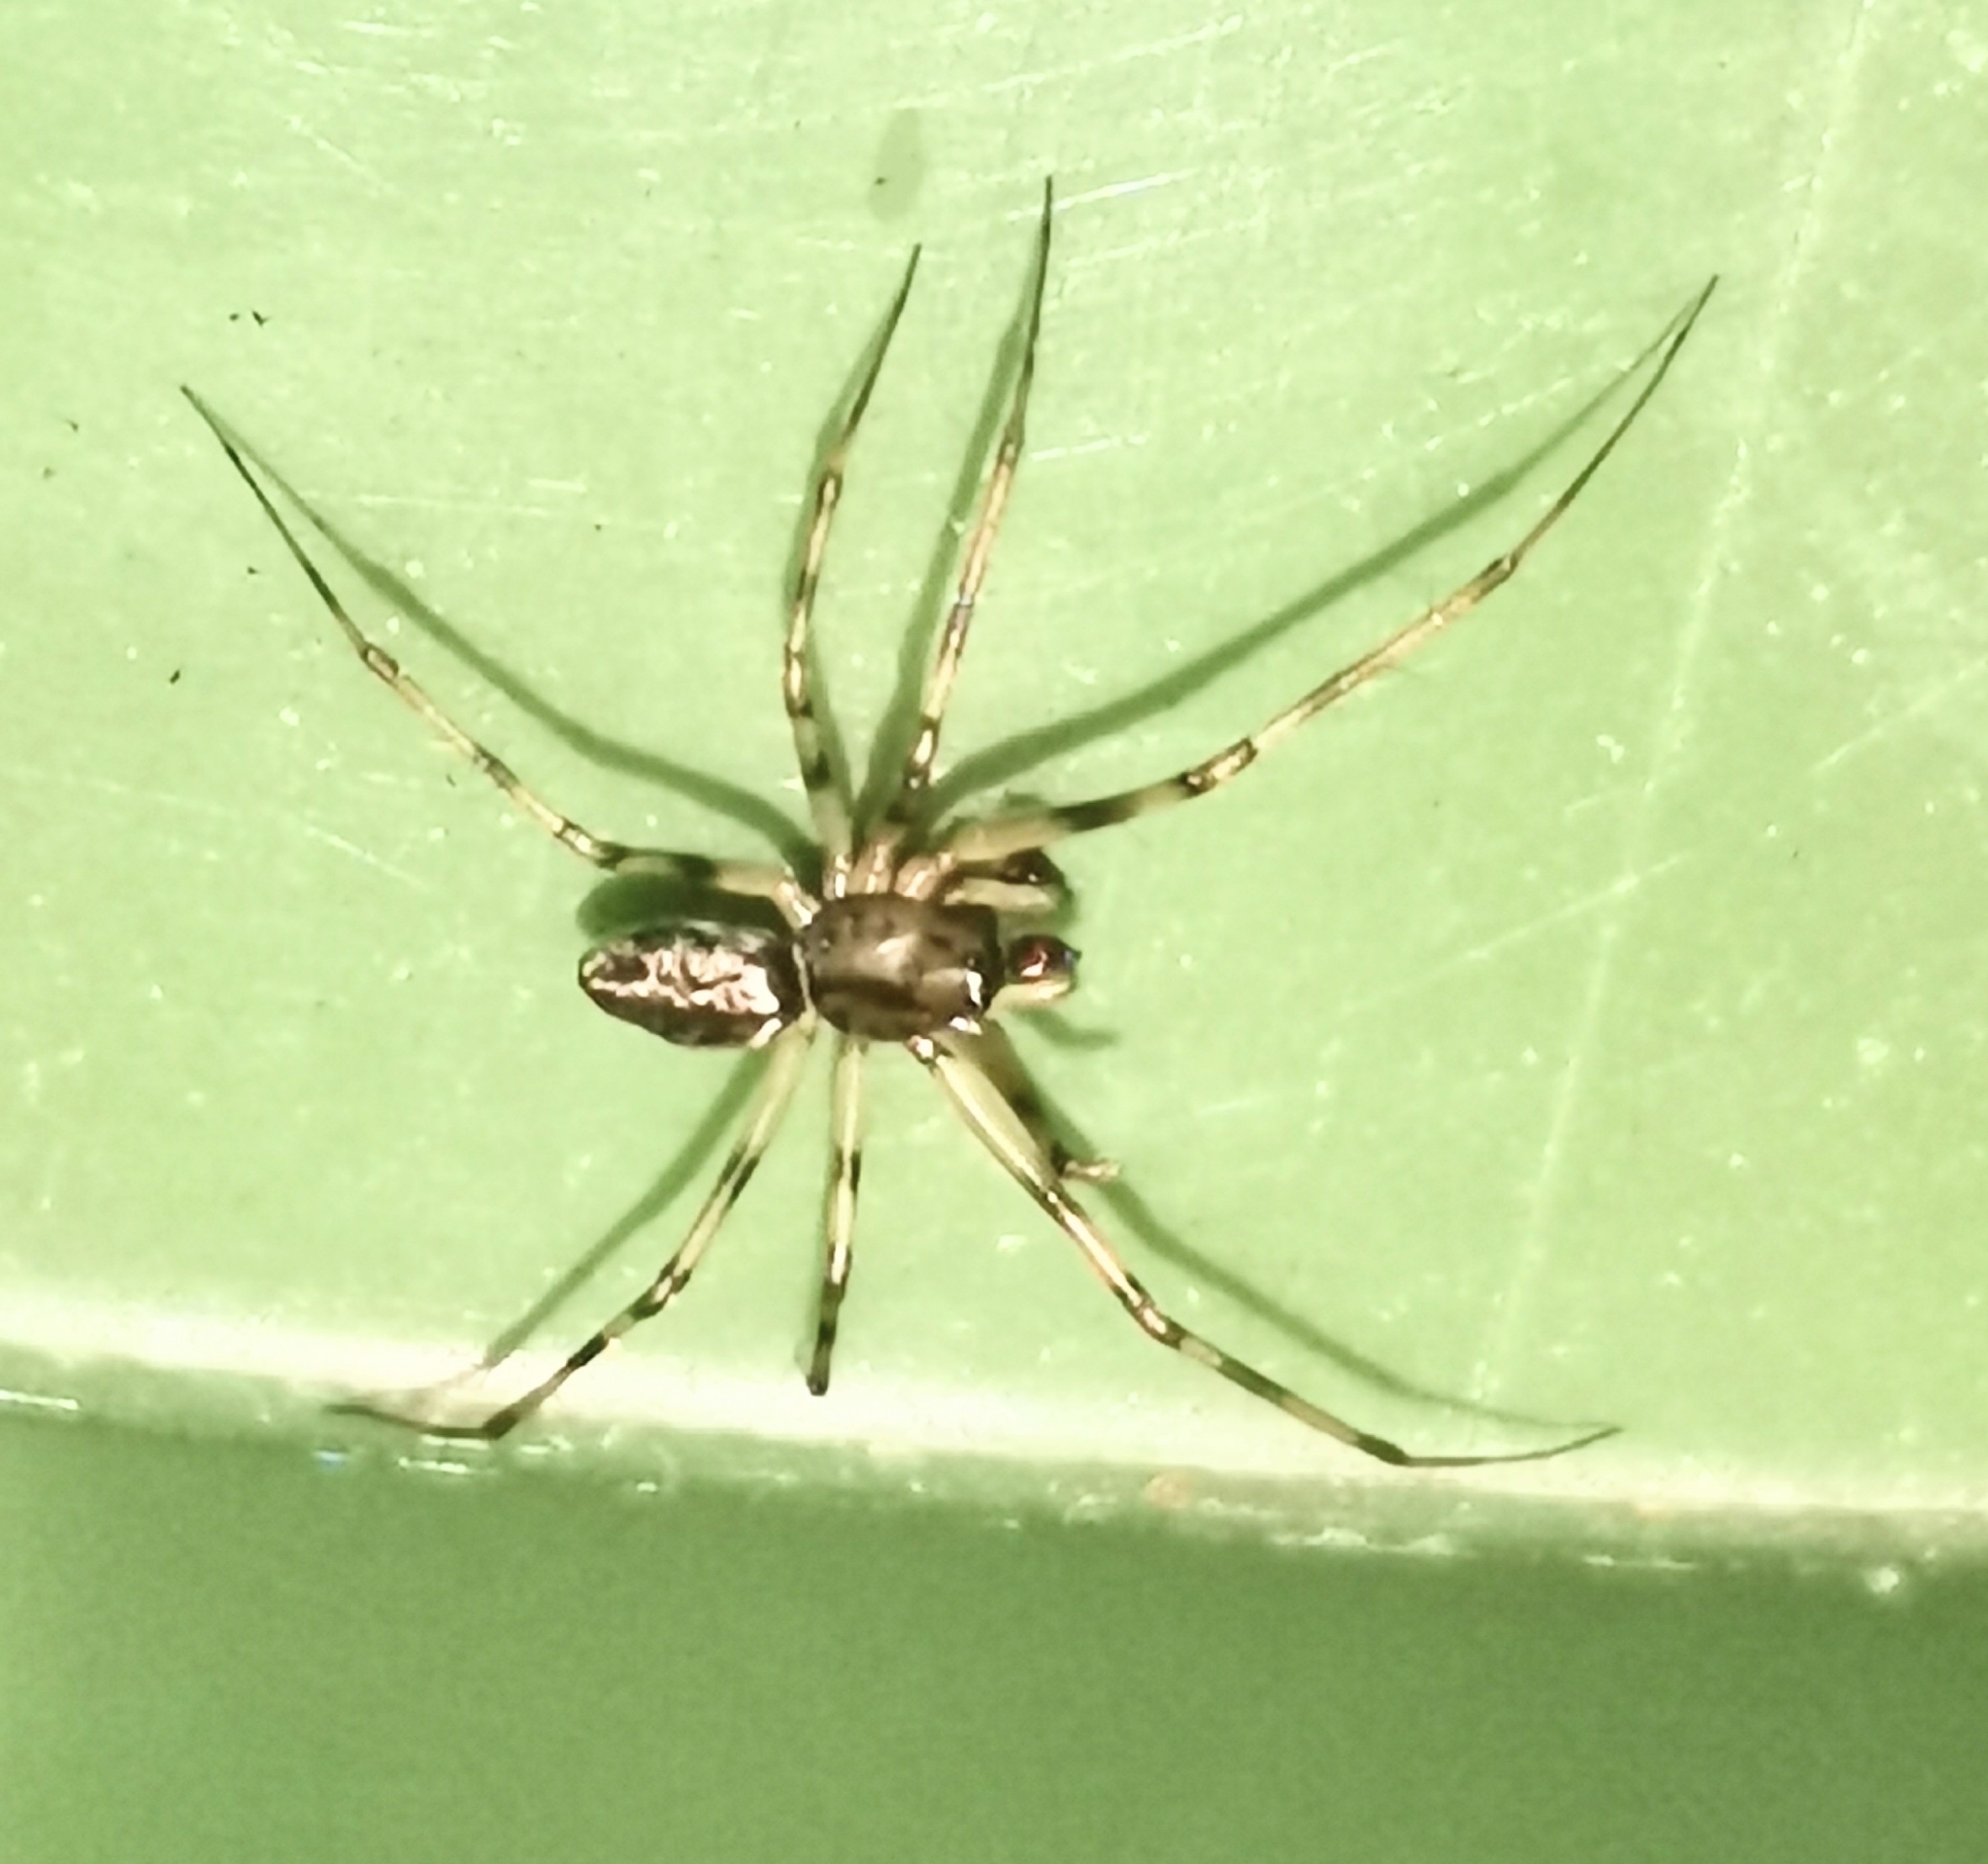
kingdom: Animalia
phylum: Arthropoda
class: Arachnida
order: Araneae
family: Linyphiidae
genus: Drapetisca
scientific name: Drapetisca socialis
